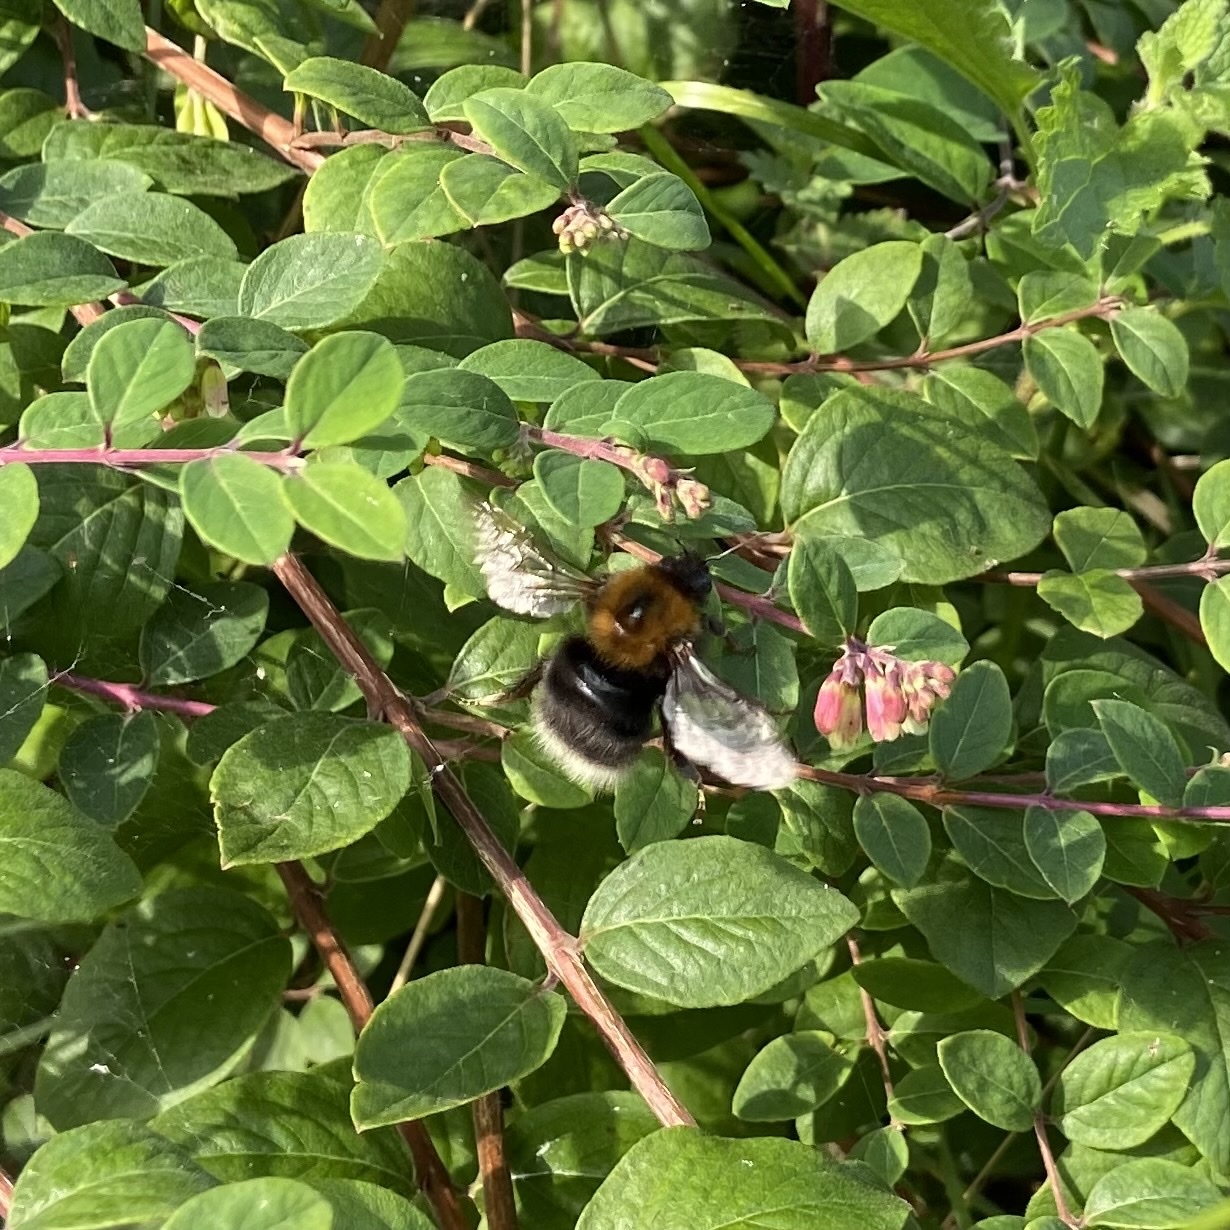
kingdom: Animalia
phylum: Arthropoda
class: Insecta
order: Hymenoptera
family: Apidae
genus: Bombus
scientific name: Bombus hypnorum
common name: New garden bumblebee
